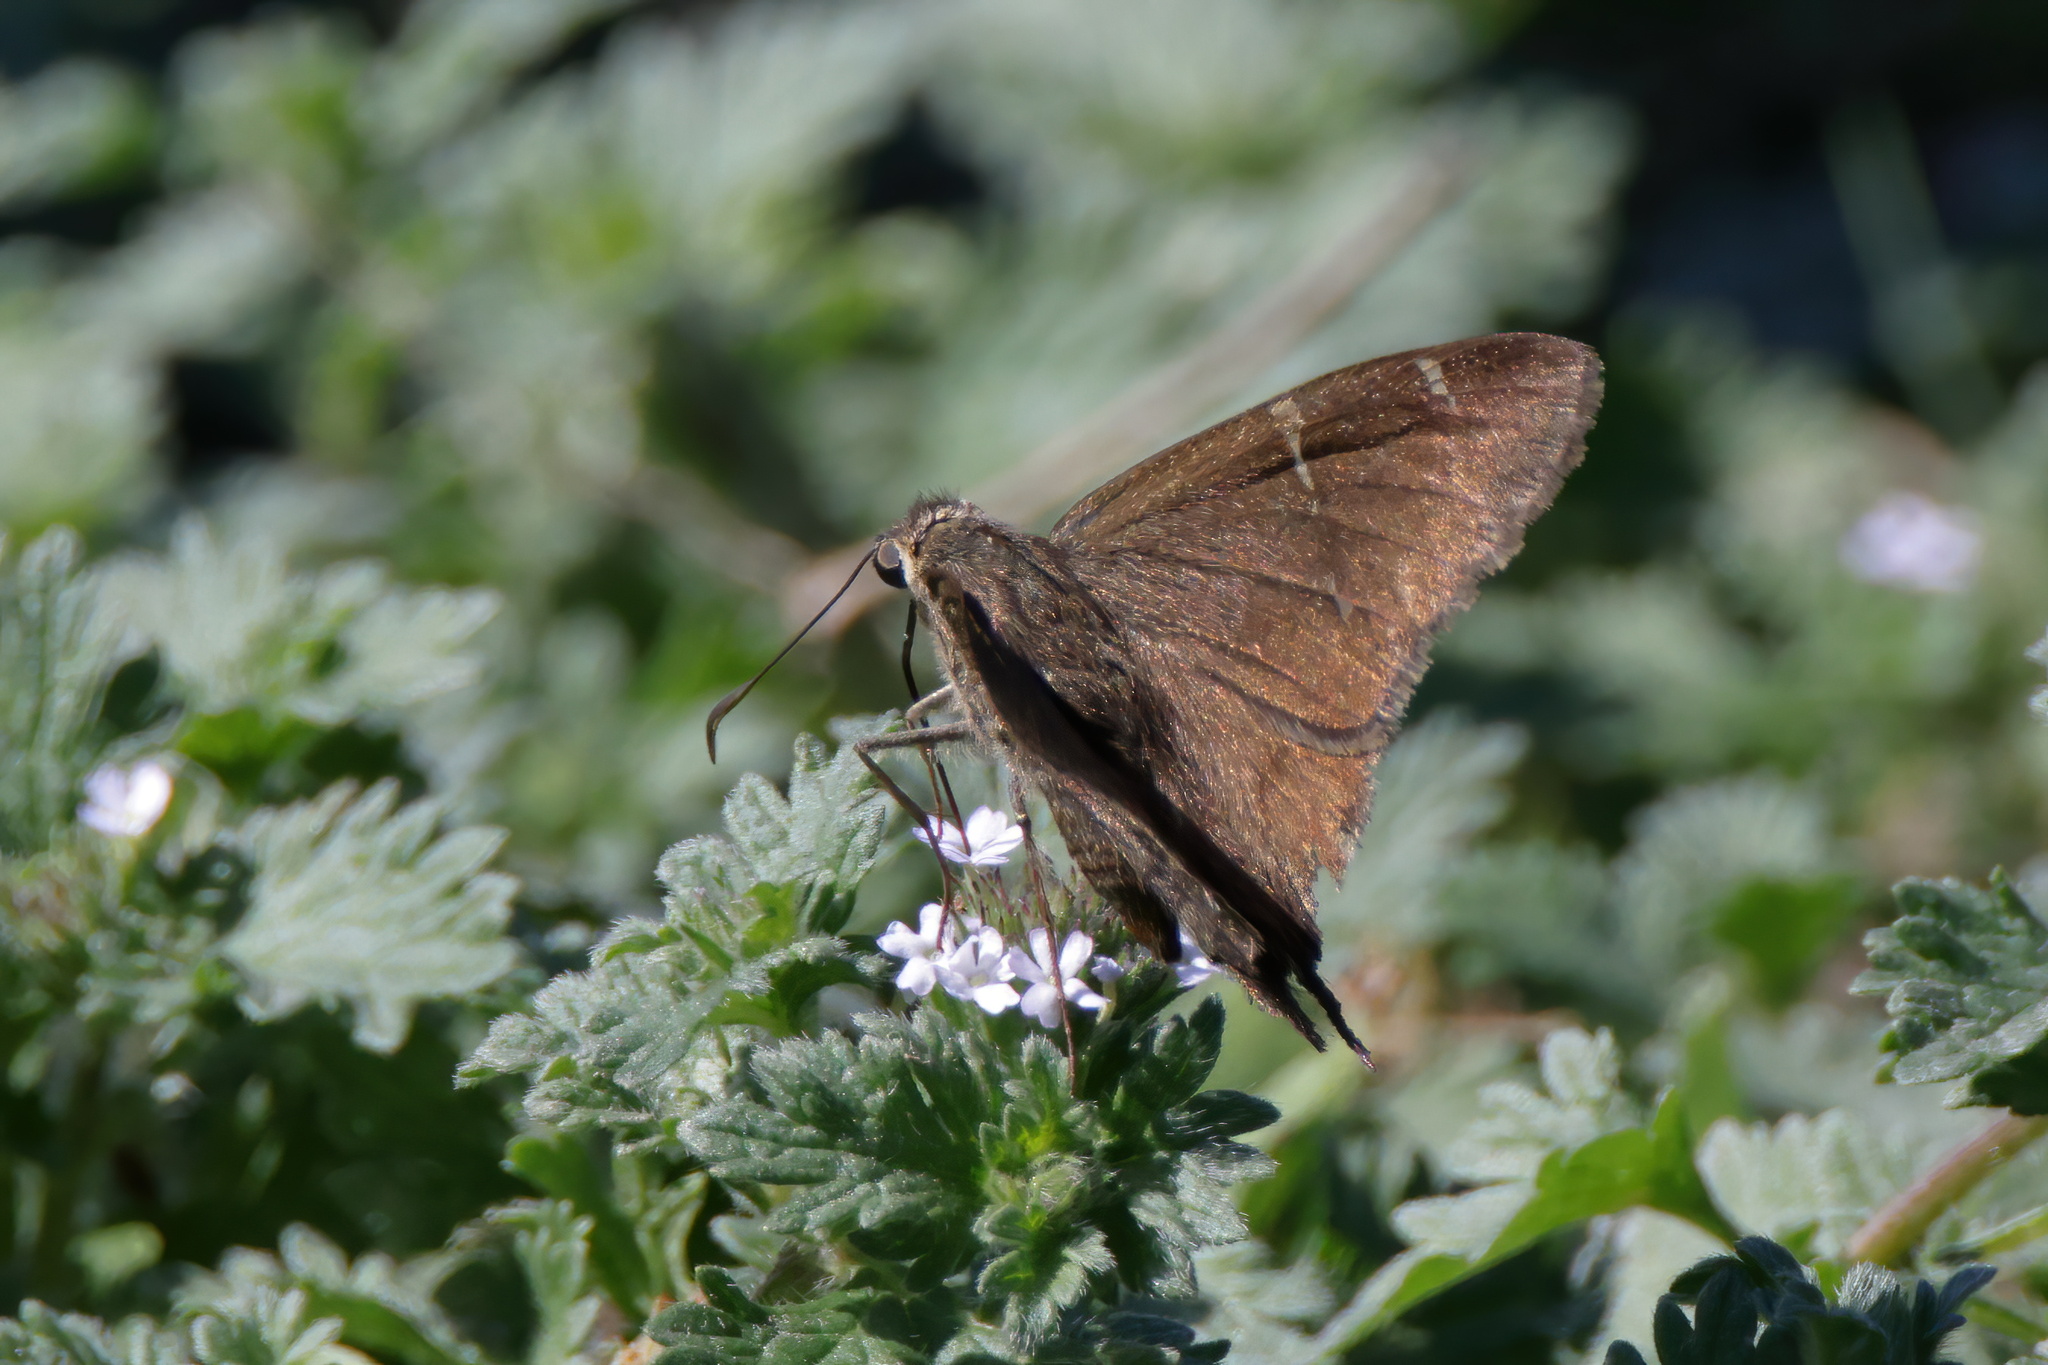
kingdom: Animalia
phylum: Arthropoda
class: Insecta
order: Lepidoptera
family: Hesperiidae
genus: Urbanus
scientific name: Urbanus procne
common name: Brown longtail
